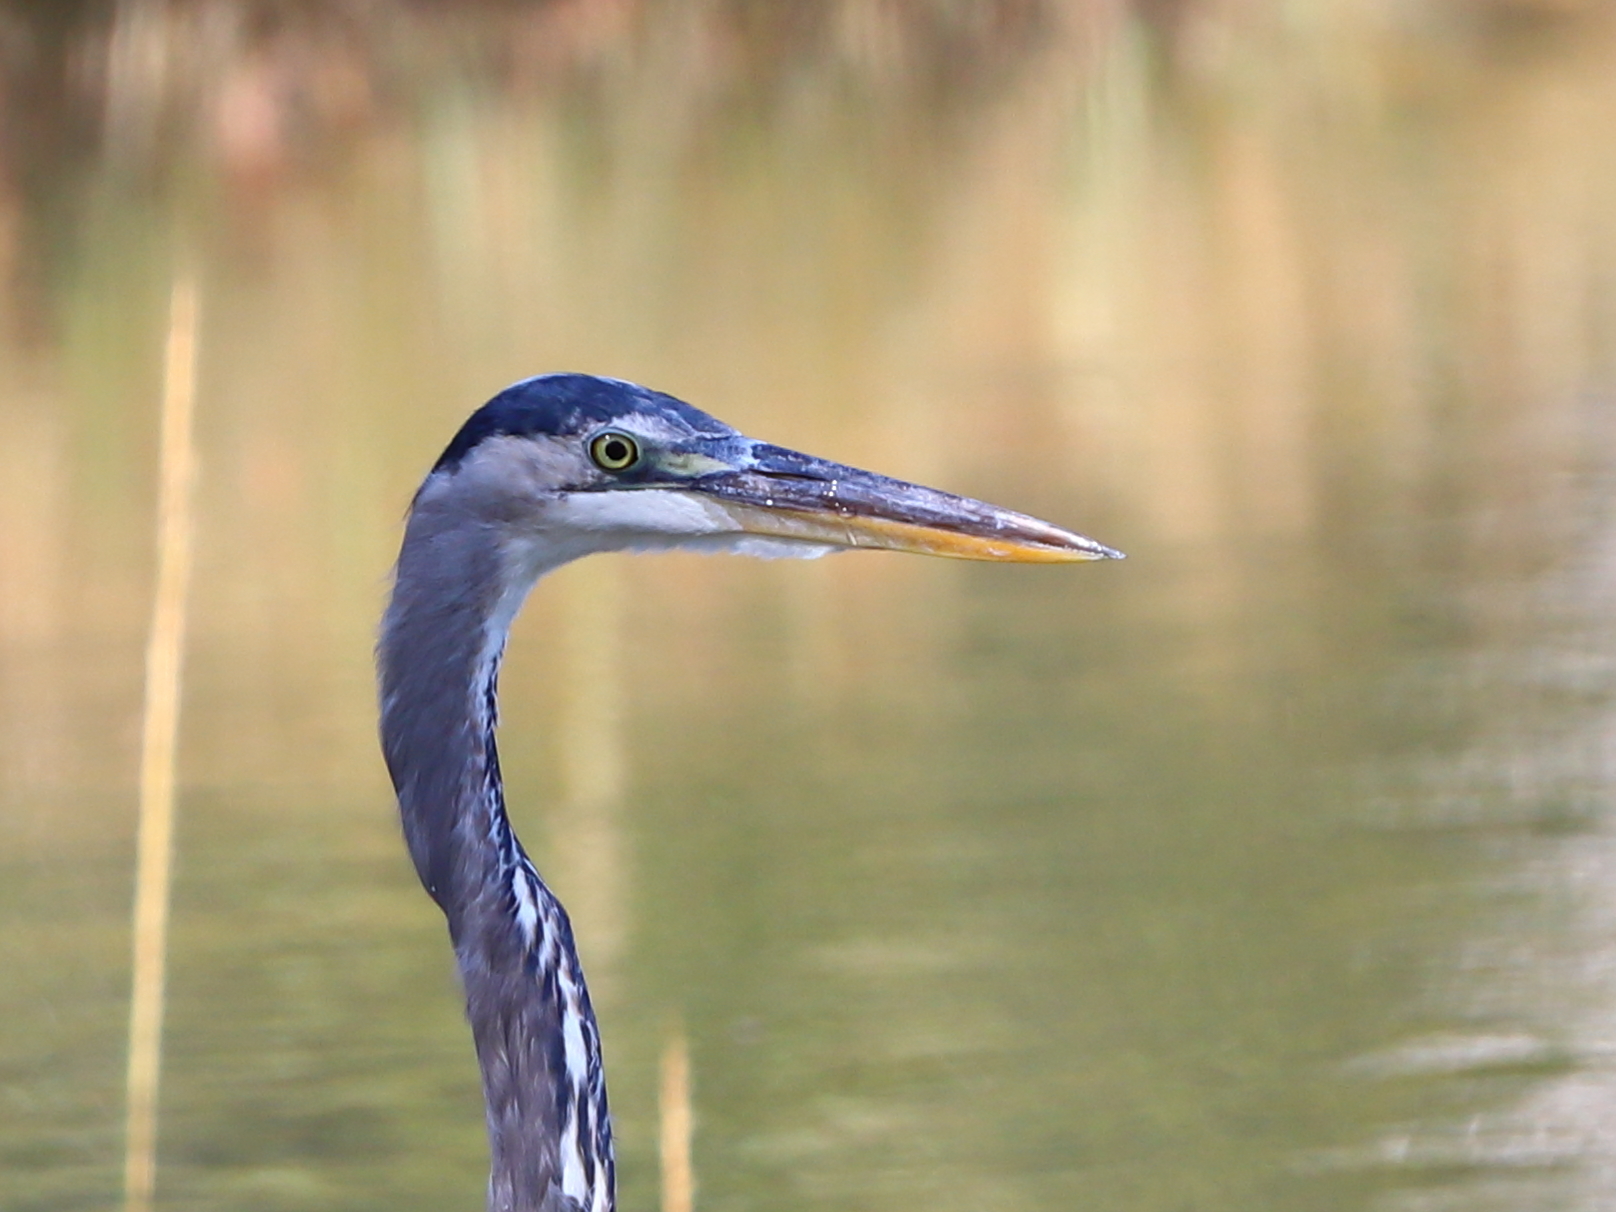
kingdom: Animalia
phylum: Chordata
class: Aves
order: Pelecaniformes
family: Ardeidae
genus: Ardea
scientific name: Ardea herodias
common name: Great blue heron
